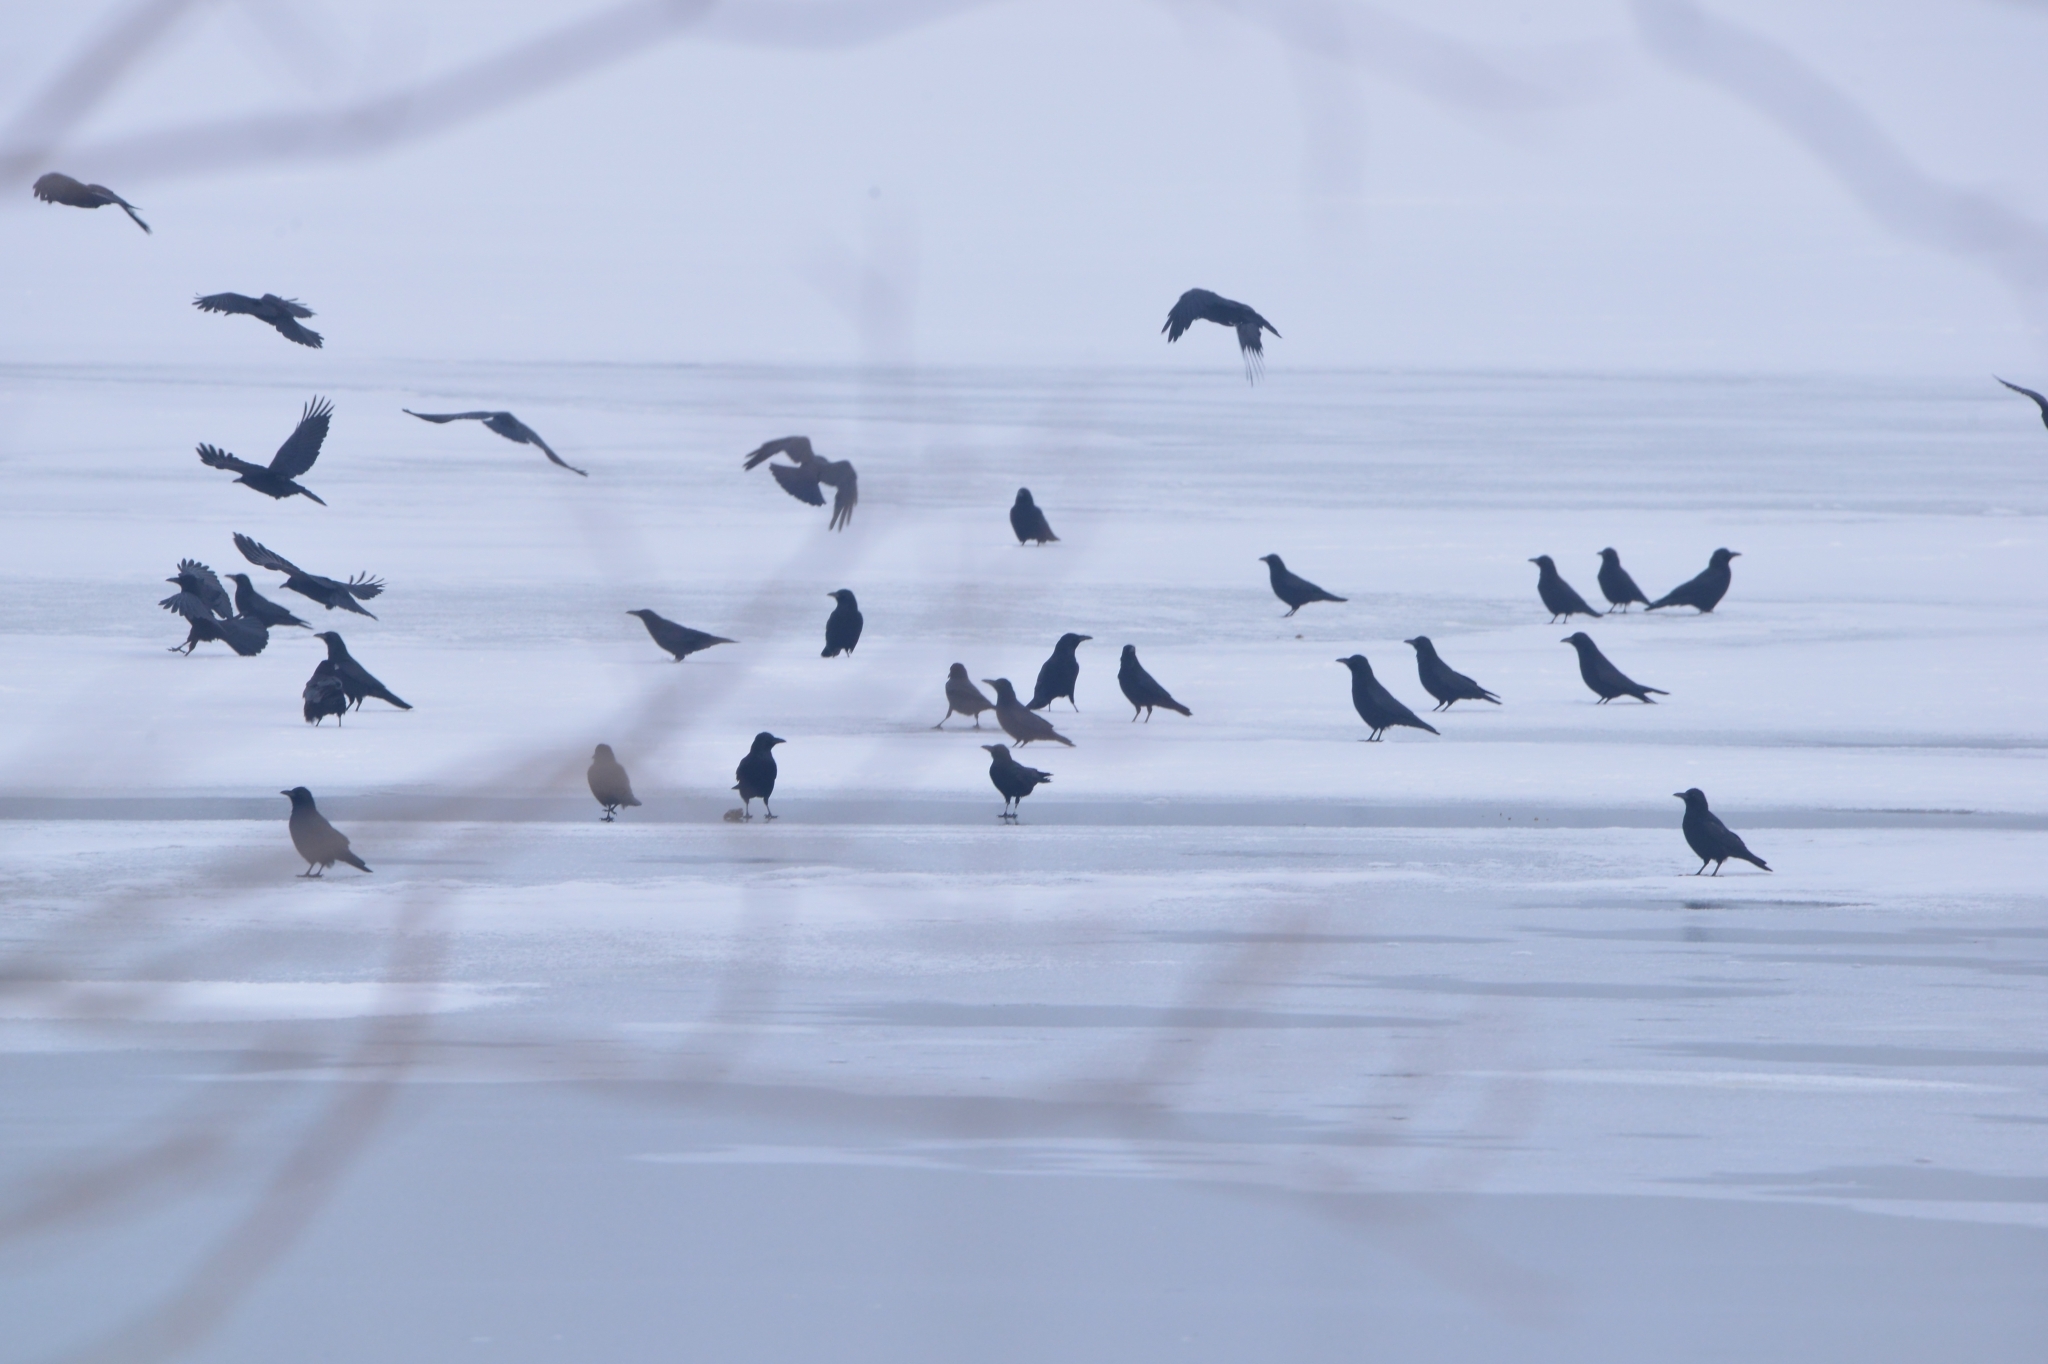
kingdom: Animalia
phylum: Chordata
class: Aves
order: Passeriformes
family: Corvidae
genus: Corvus
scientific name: Corvus corone
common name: Carrion crow
